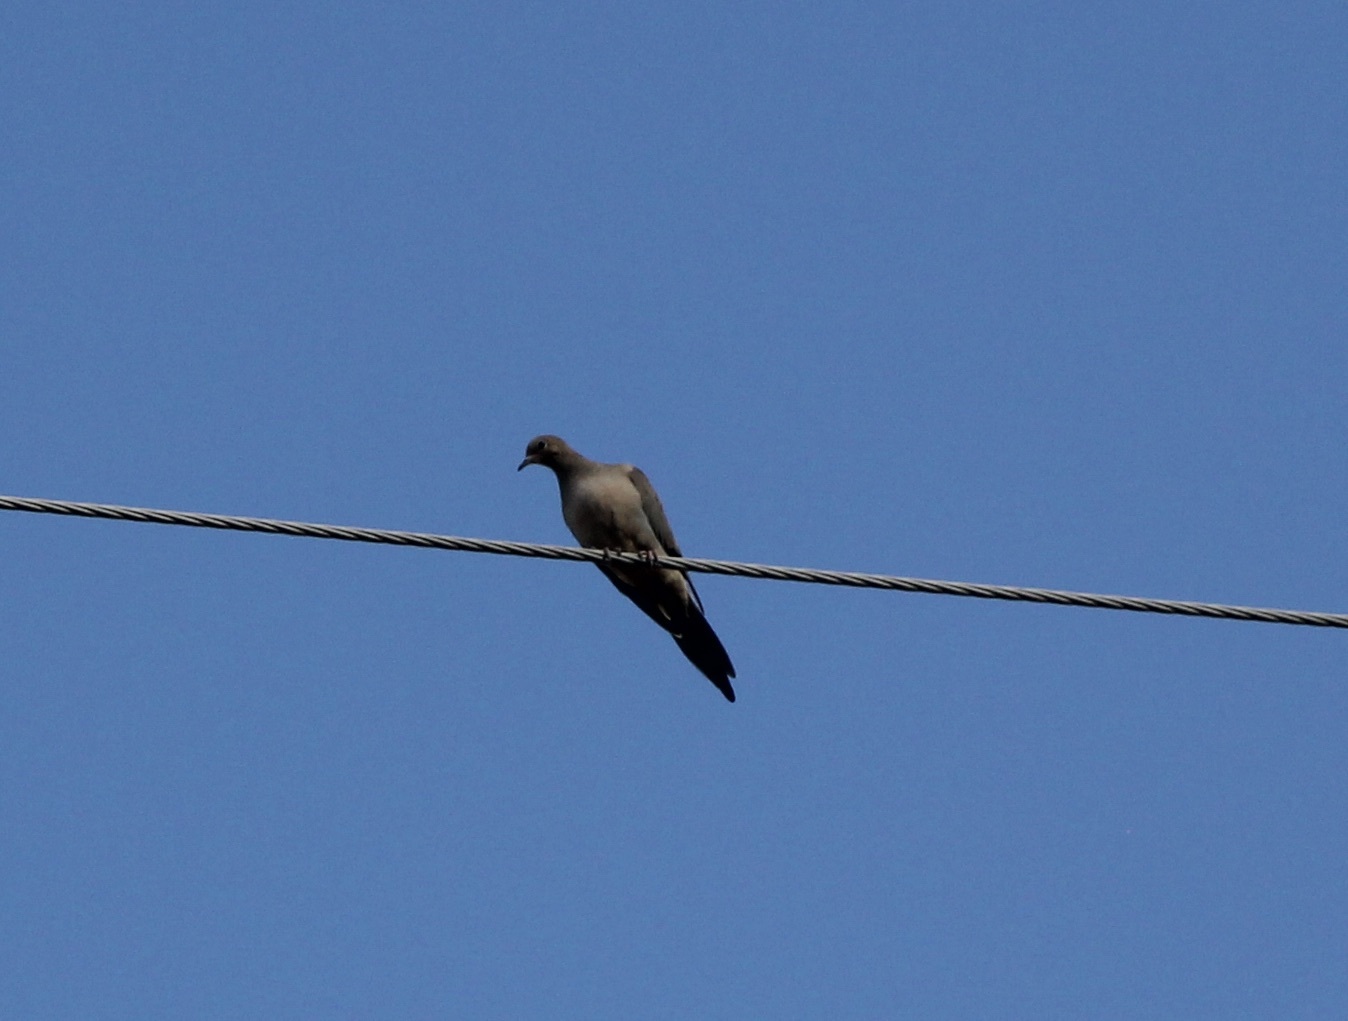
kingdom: Animalia
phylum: Chordata
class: Aves
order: Columbiformes
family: Columbidae
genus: Zenaida
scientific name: Zenaida macroura
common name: Mourning dove
